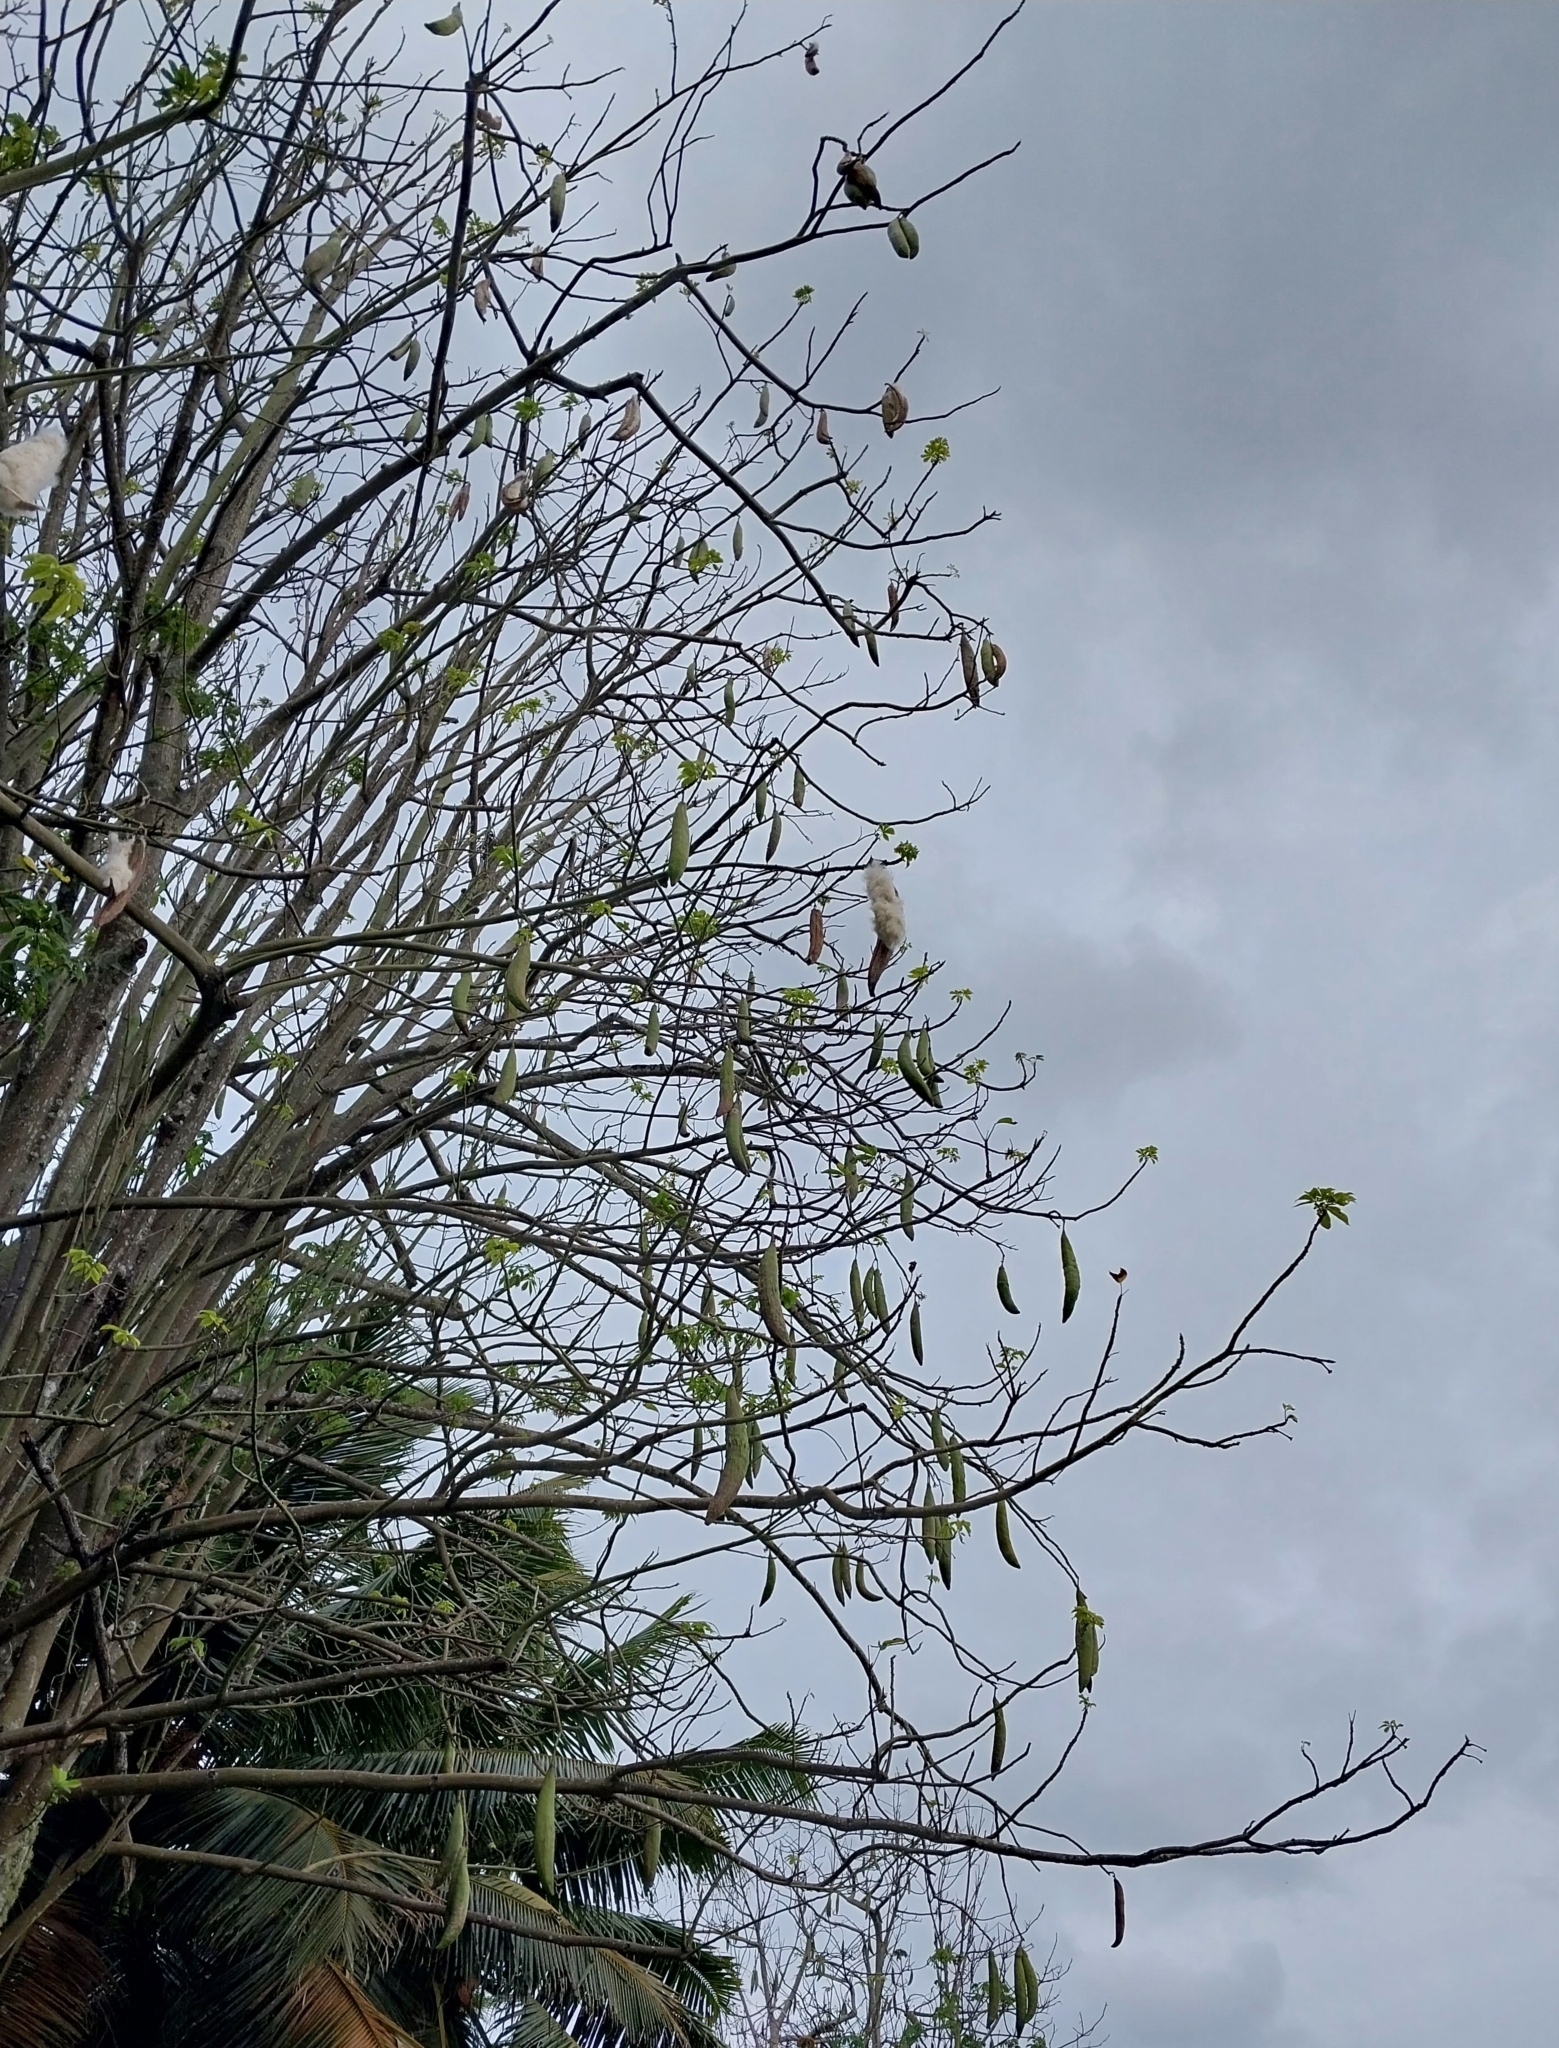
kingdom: Plantae
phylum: Tracheophyta
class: Magnoliopsida
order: Malvales
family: Malvaceae
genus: Ceiba
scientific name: Ceiba pentandra
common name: Kapok
